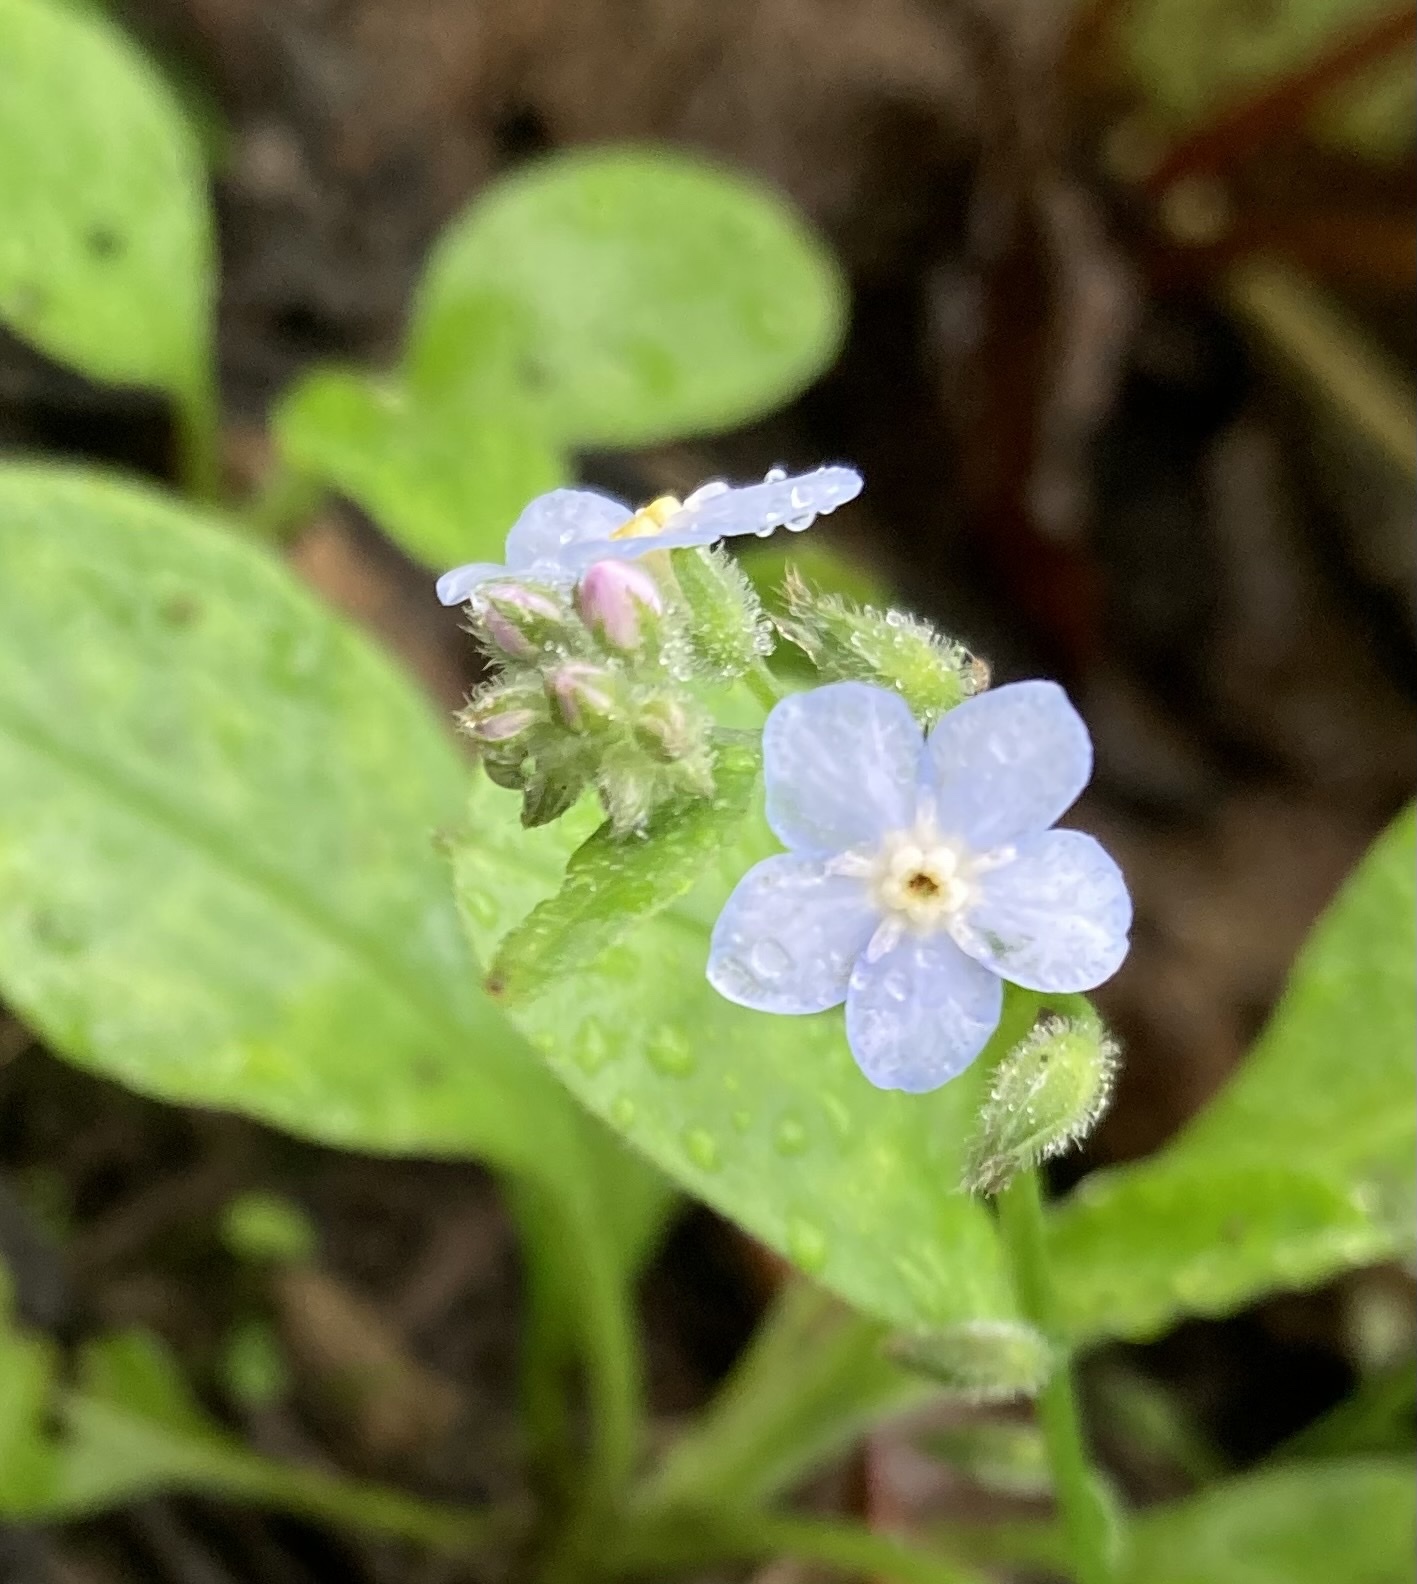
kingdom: Plantae
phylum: Tracheophyta
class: Magnoliopsida
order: Boraginales
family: Boraginaceae
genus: Myosotis
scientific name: Myosotis latifolia
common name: Broadleaf forget-me-not
